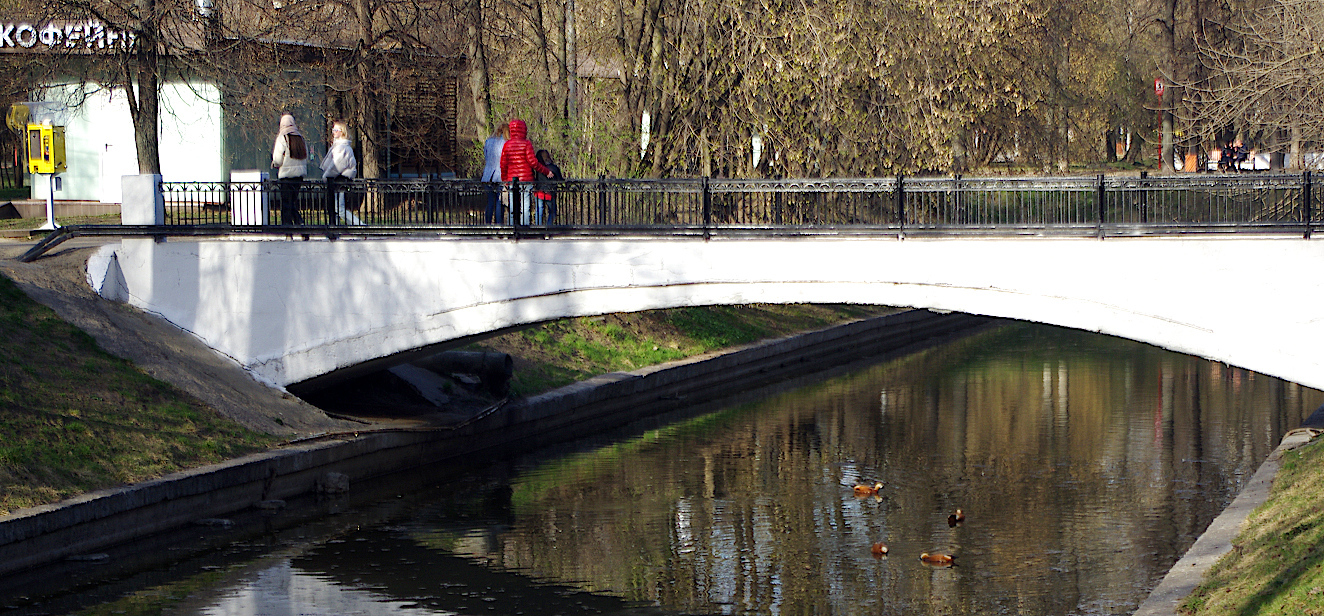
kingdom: Animalia
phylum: Chordata
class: Aves
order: Anseriformes
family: Anatidae
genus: Tadorna
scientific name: Tadorna ferruginea
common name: Ruddy shelduck
